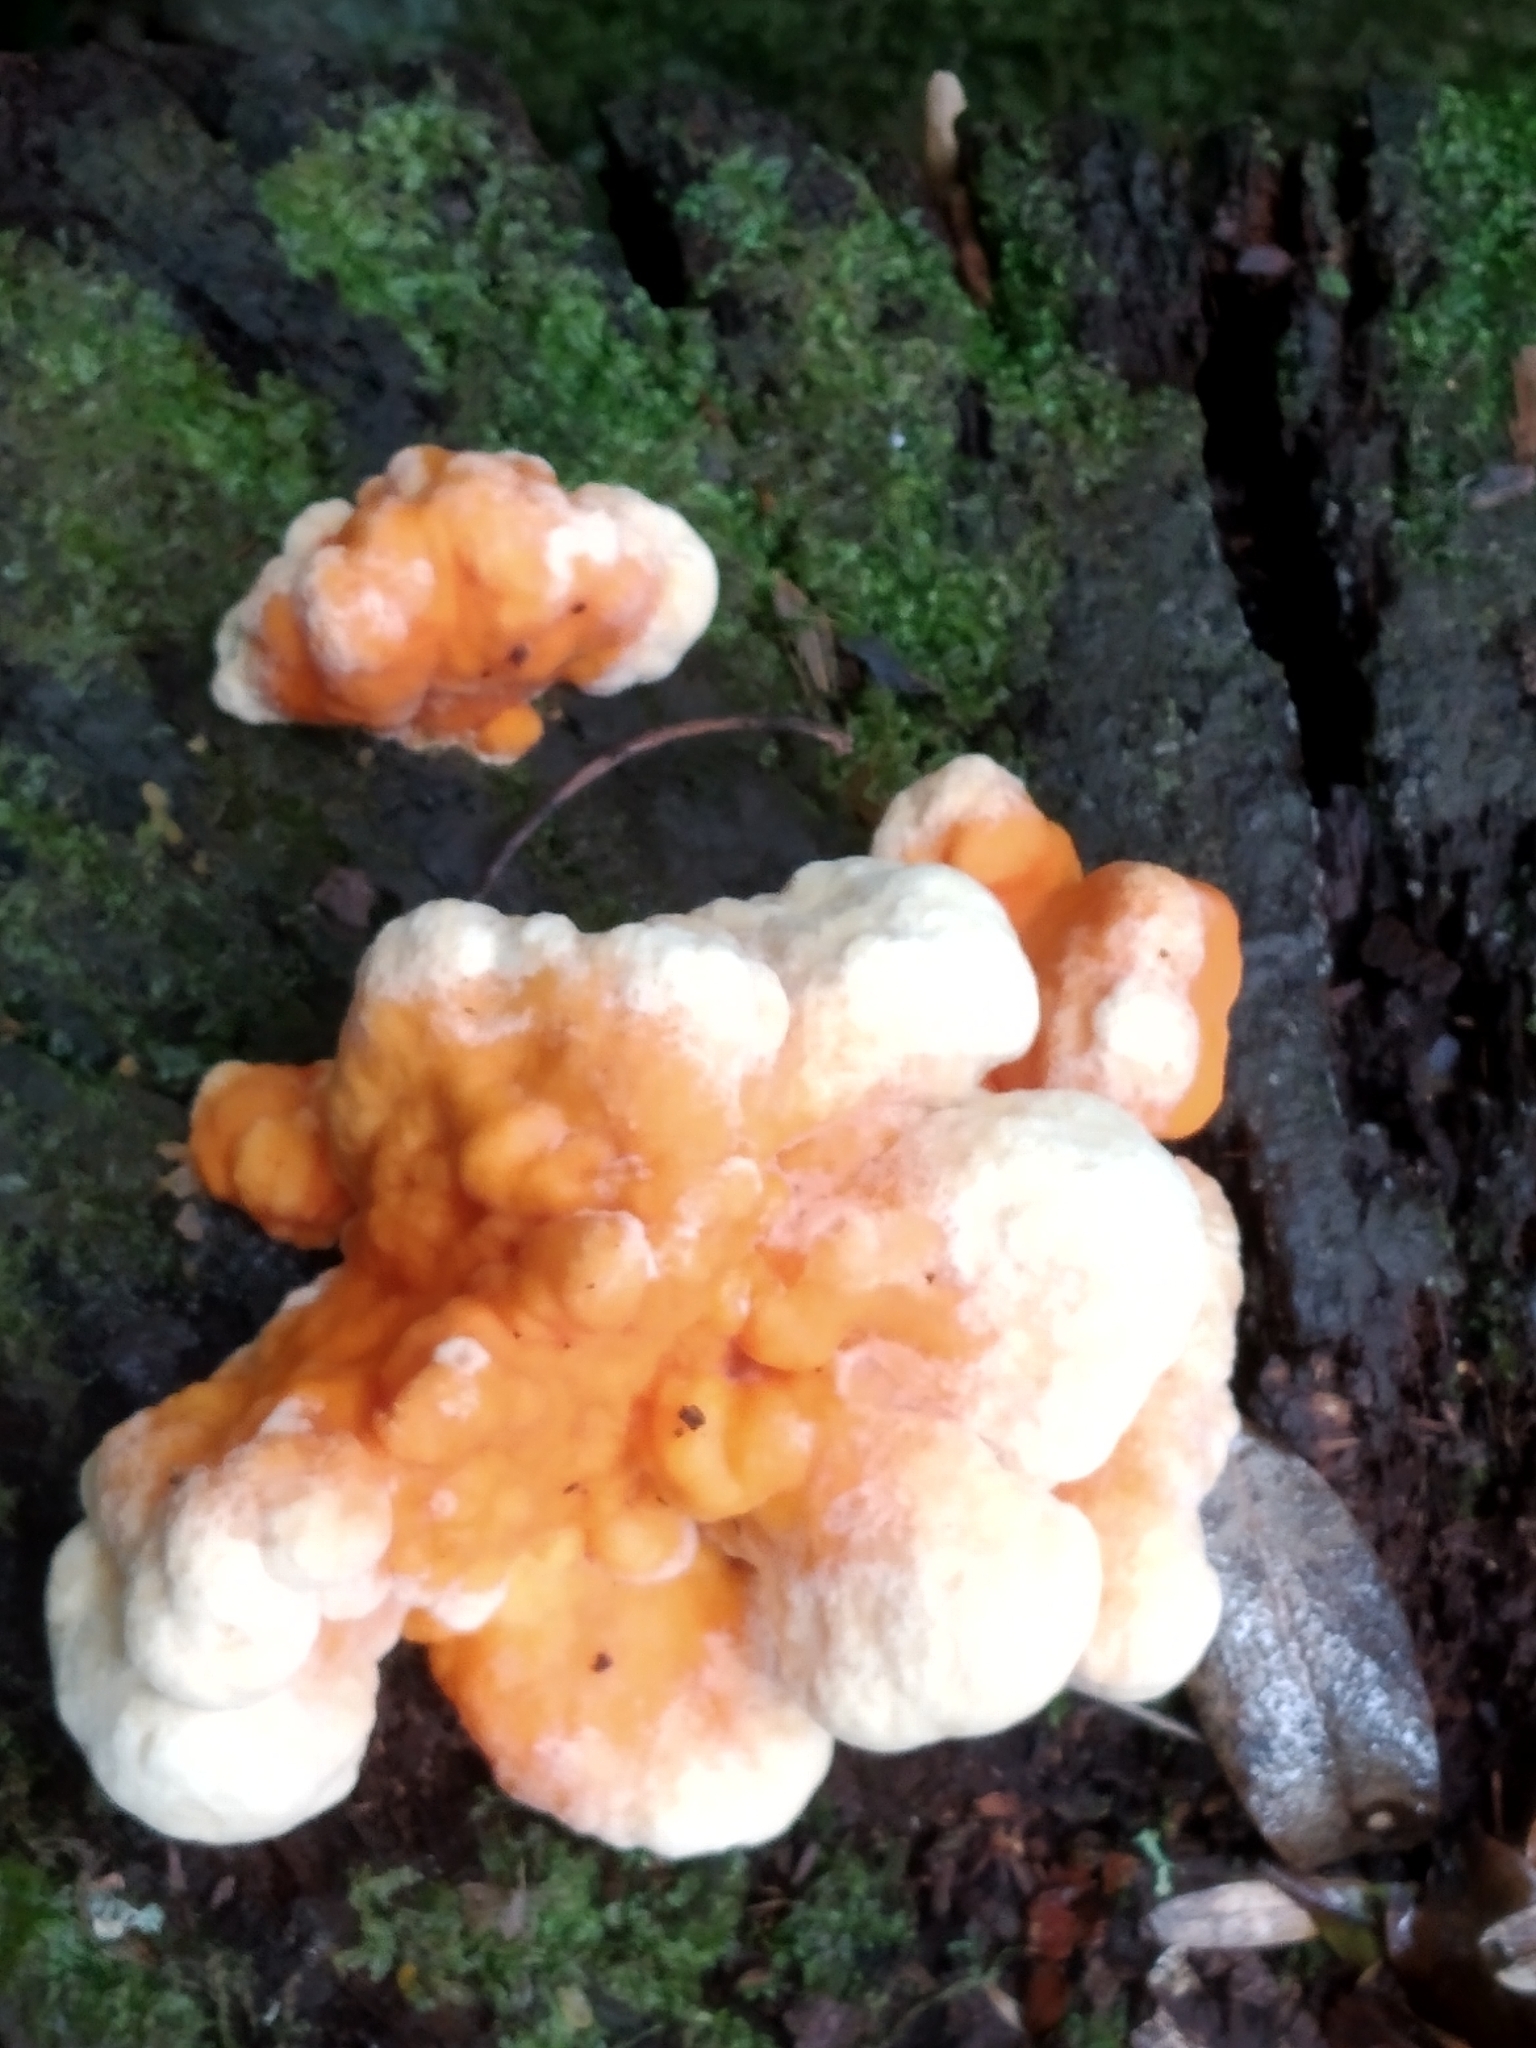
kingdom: Fungi
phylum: Basidiomycota
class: Agaricomycetes
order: Polyporales
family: Laetiporaceae
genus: Laetiporus
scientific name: Laetiporus sulphureus
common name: Chicken of the woods
